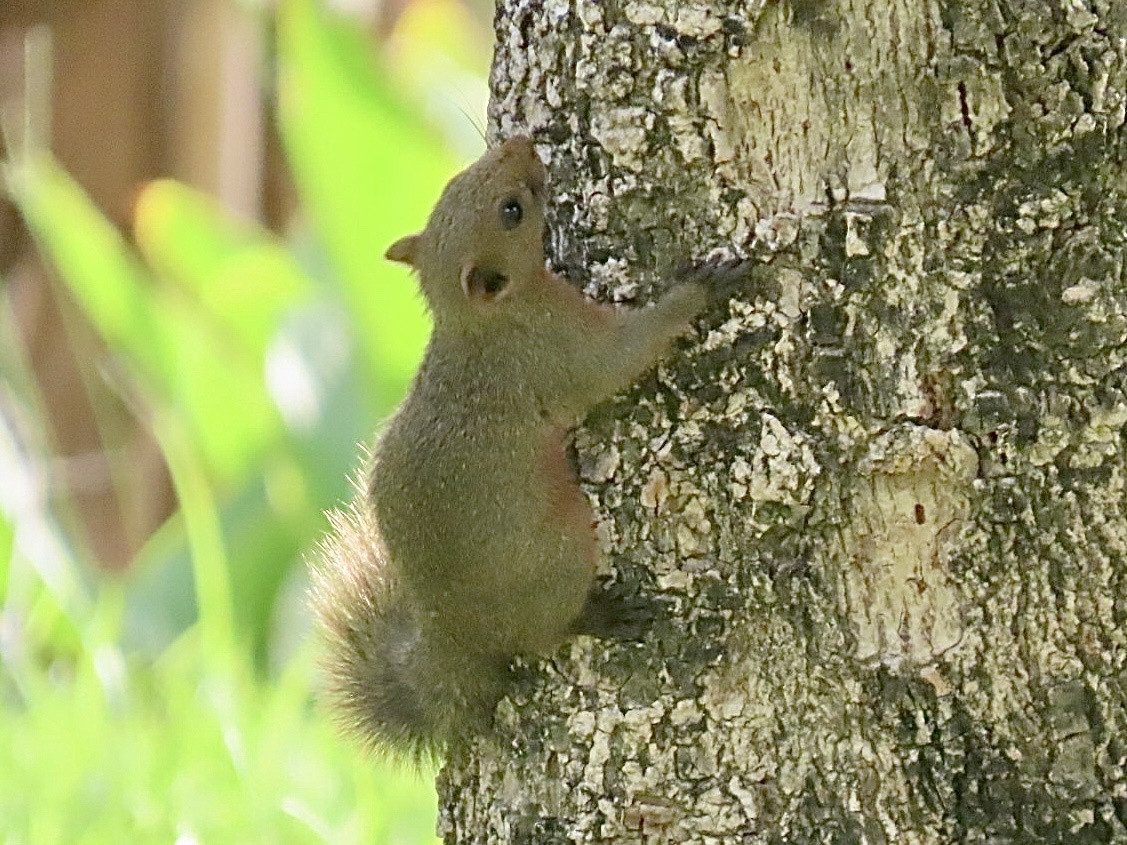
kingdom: Animalia
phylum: Chordata
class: Mammalia
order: Rodentia
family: Sciuridae
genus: Callosciurus
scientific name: Callosciurus erythraeus
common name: Pallas's squirrel
